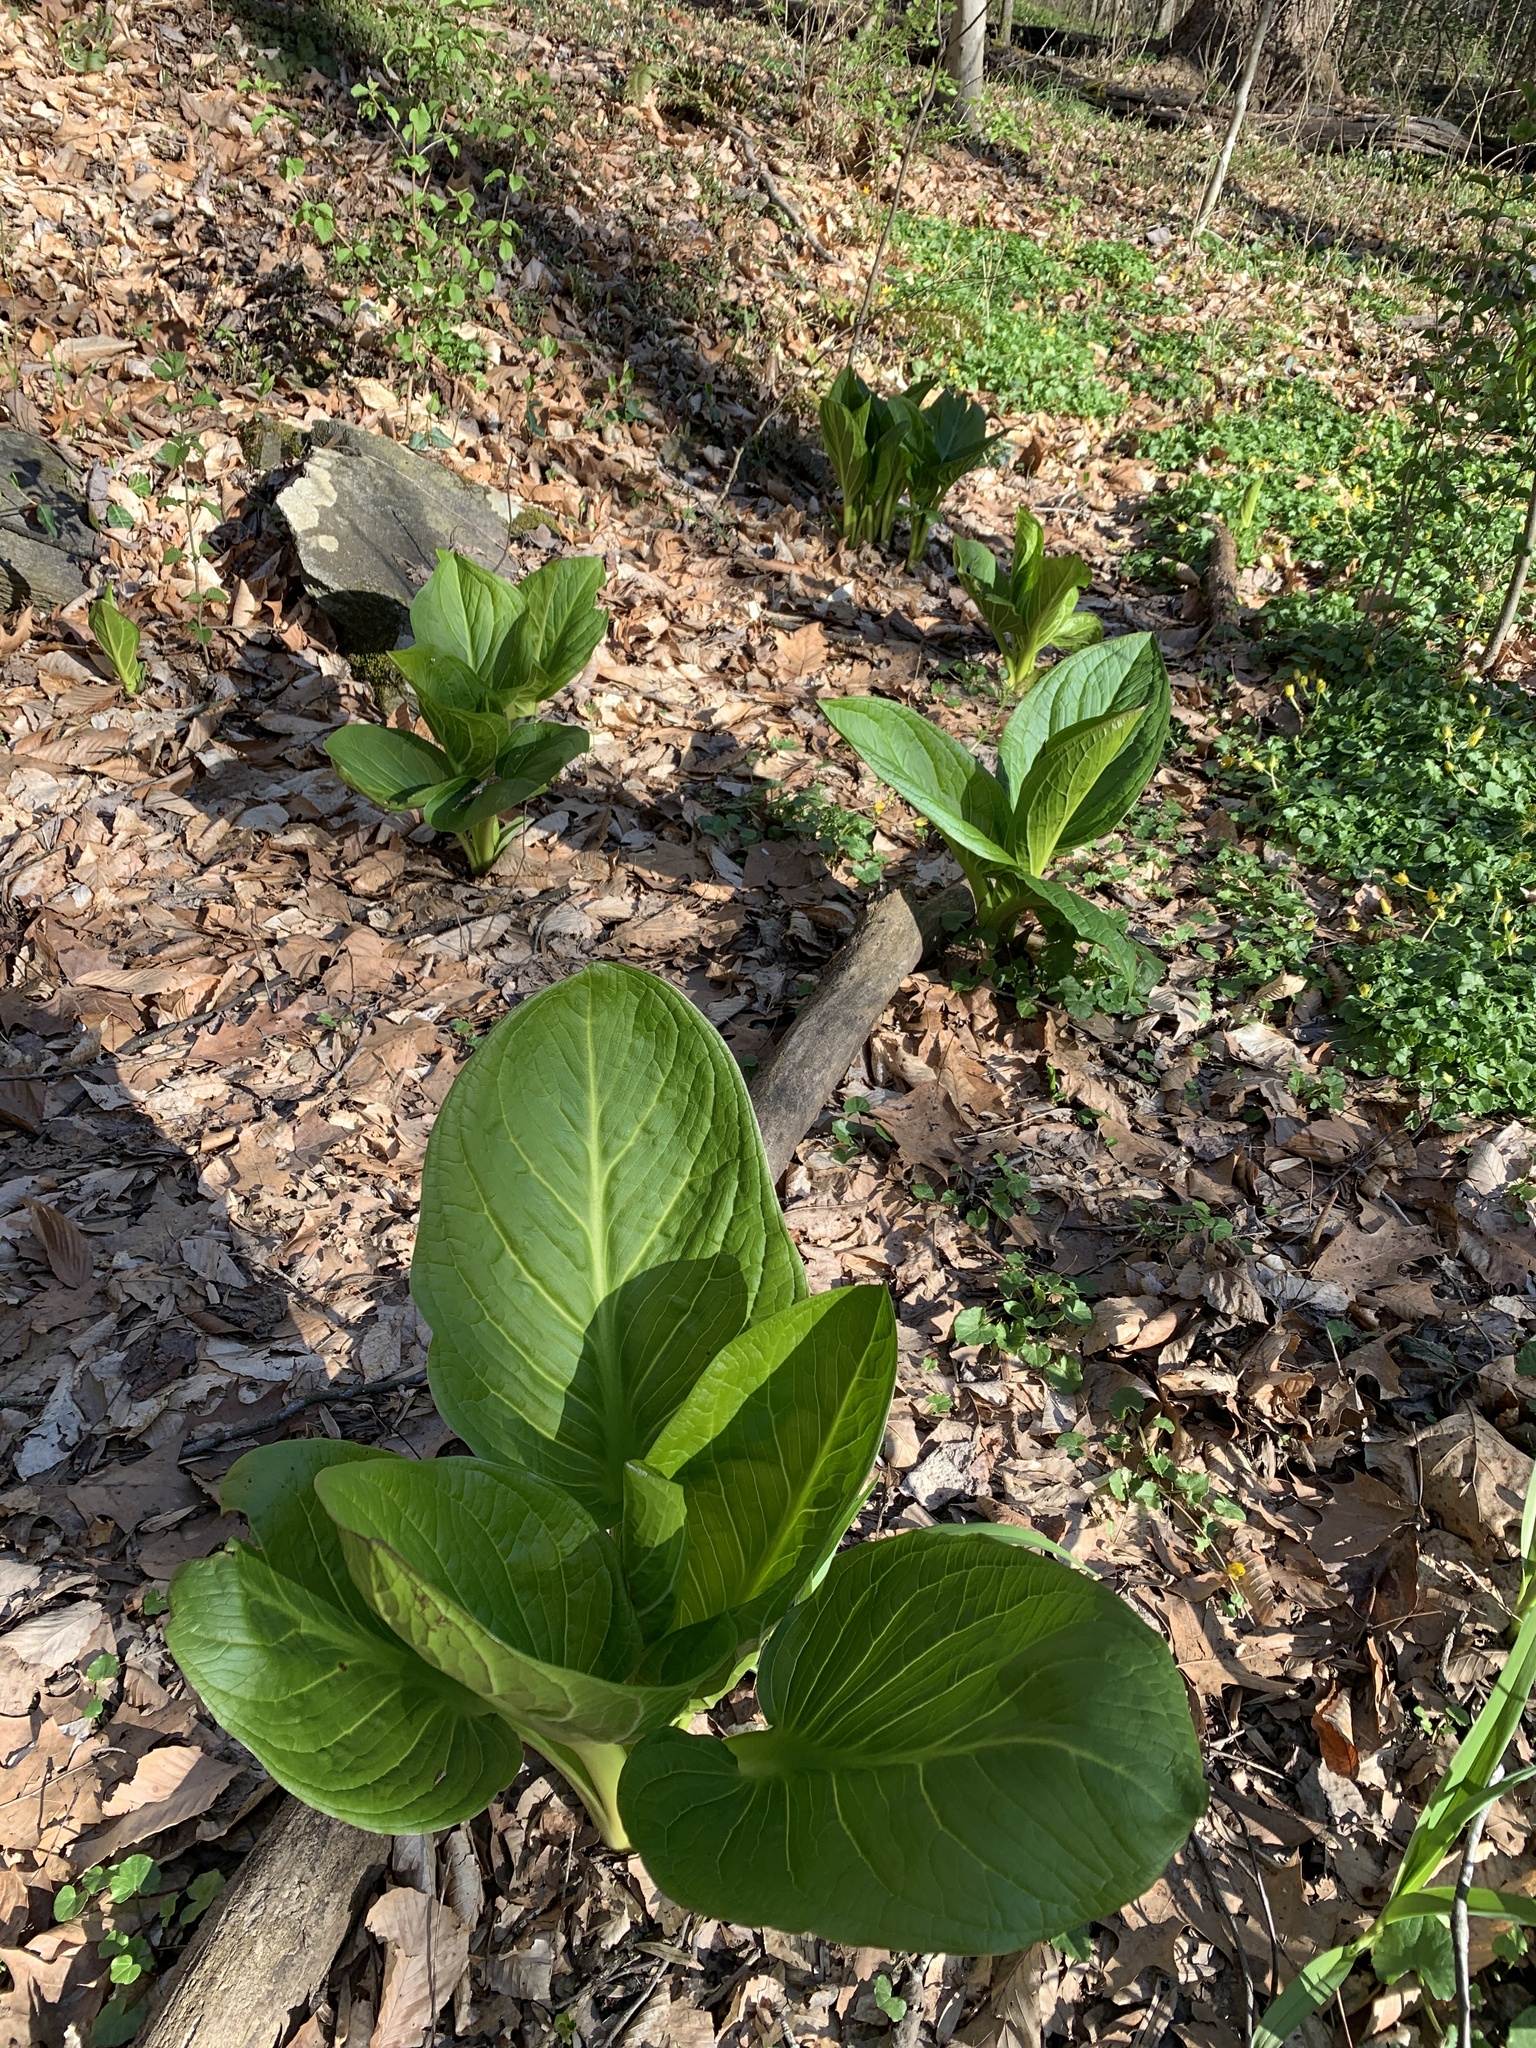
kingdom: Plantae
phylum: Tracheophyta
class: Liliopsida
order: Alismatales
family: Araceae
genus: Symplocarpus
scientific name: Symplocarpus foetidus
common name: Eastern skunk cabbage
